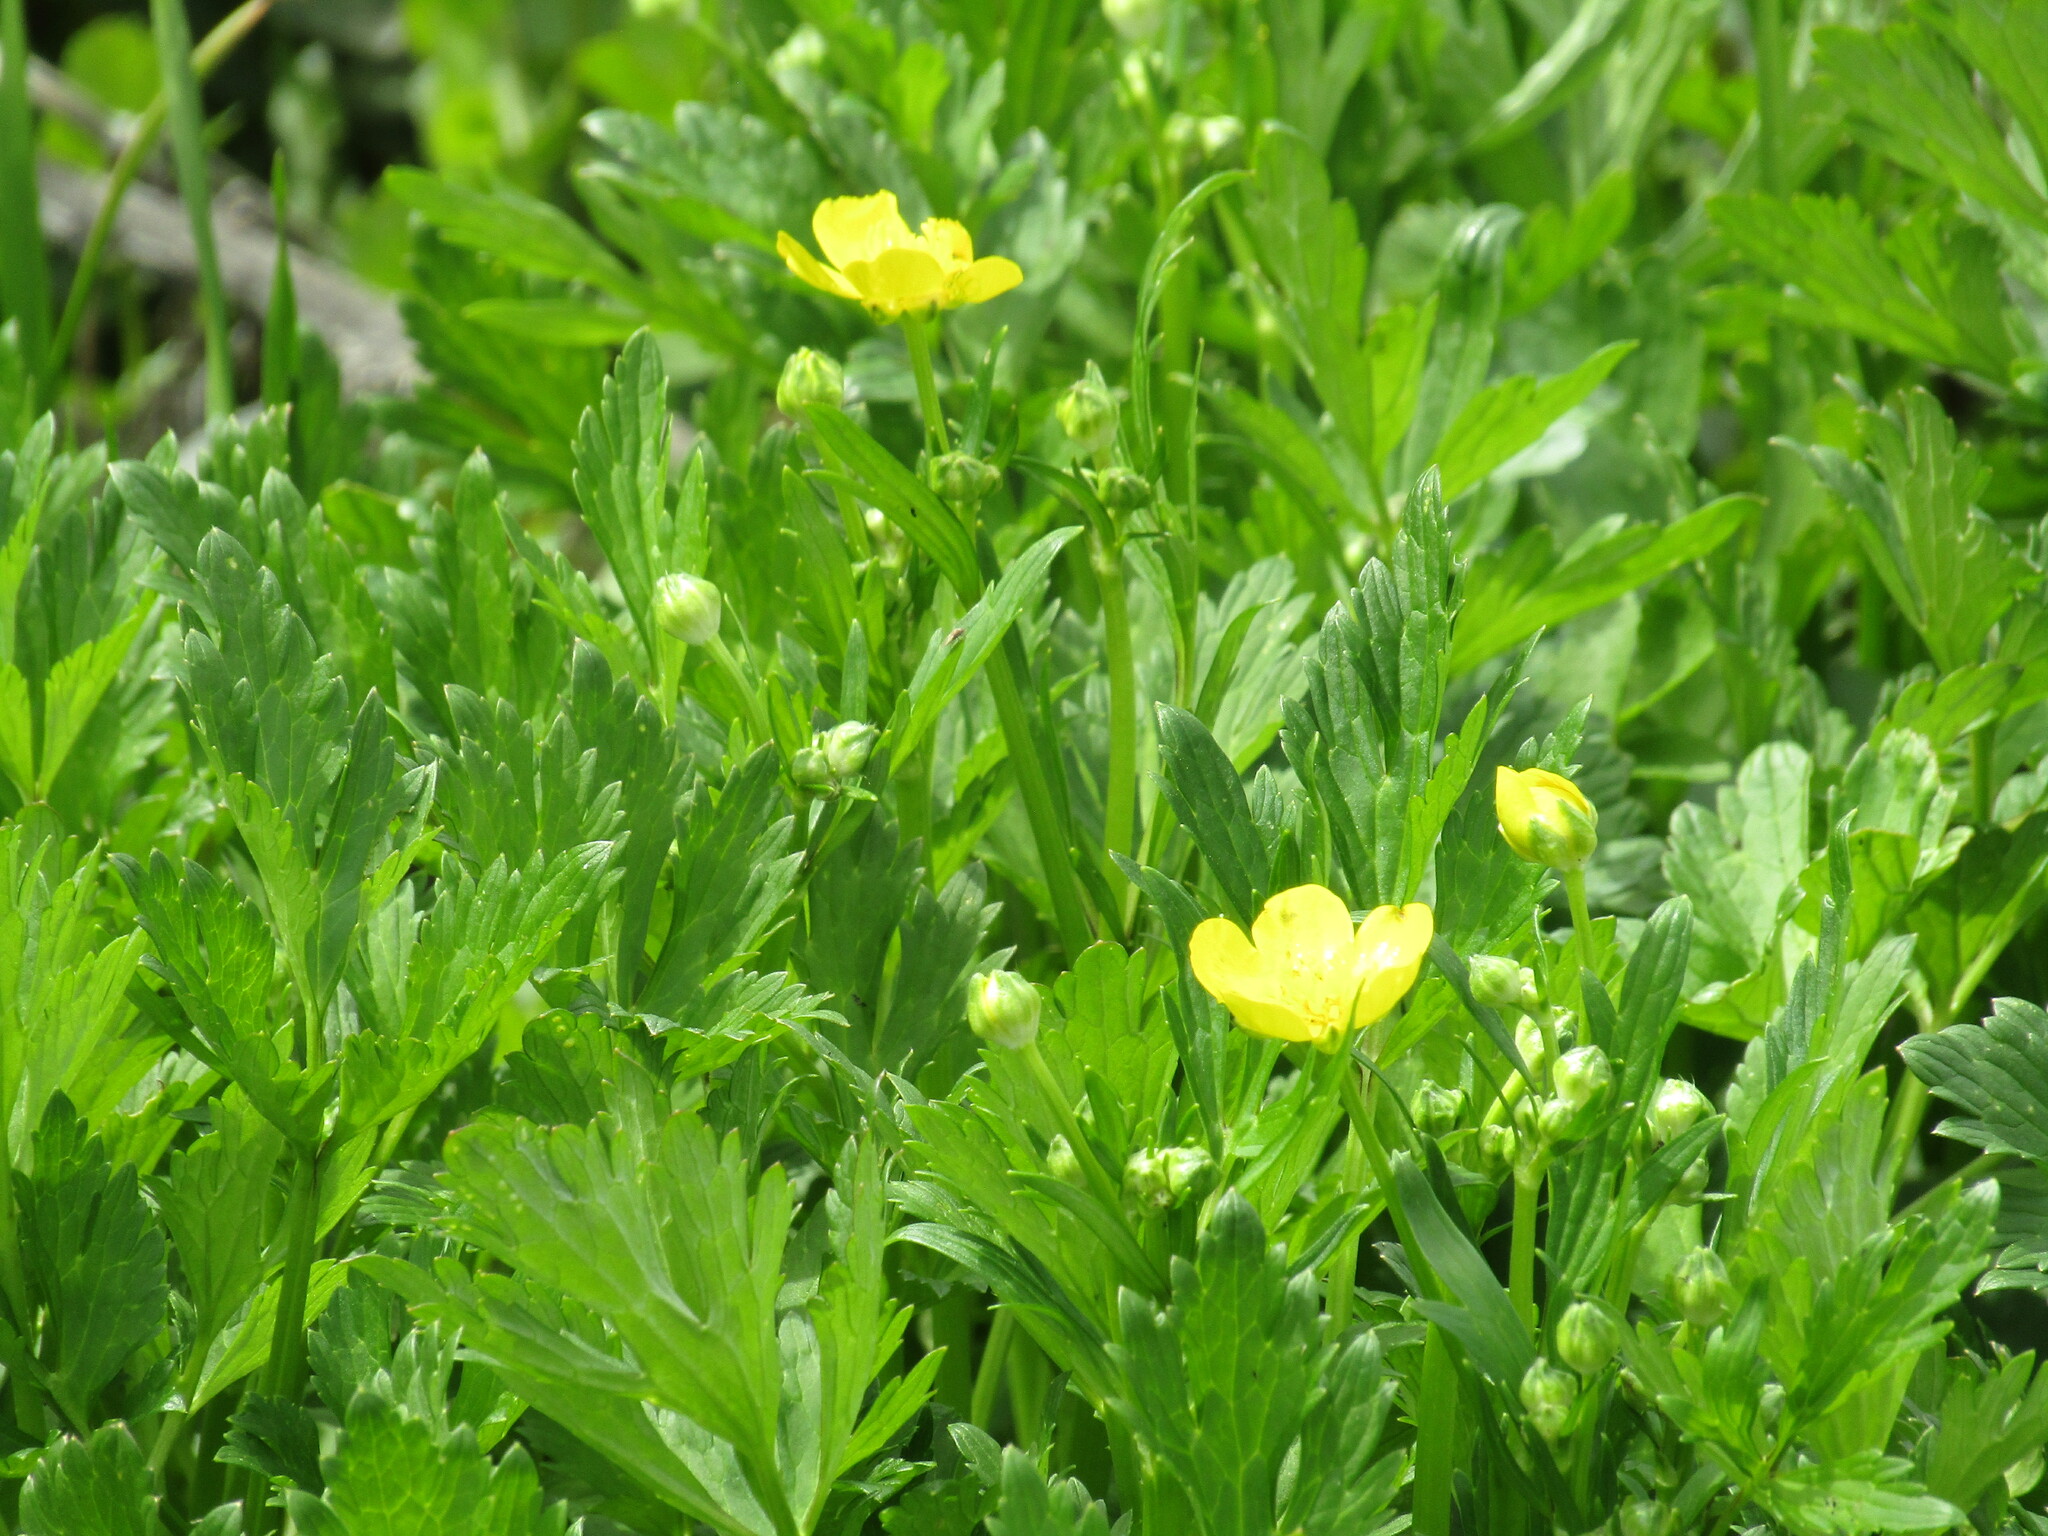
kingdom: Plantae
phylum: Tracheophyta
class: Magnoliopsida
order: Ranunculales
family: Ranunculaceae
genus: Ranunculus
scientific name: Ranunculus
